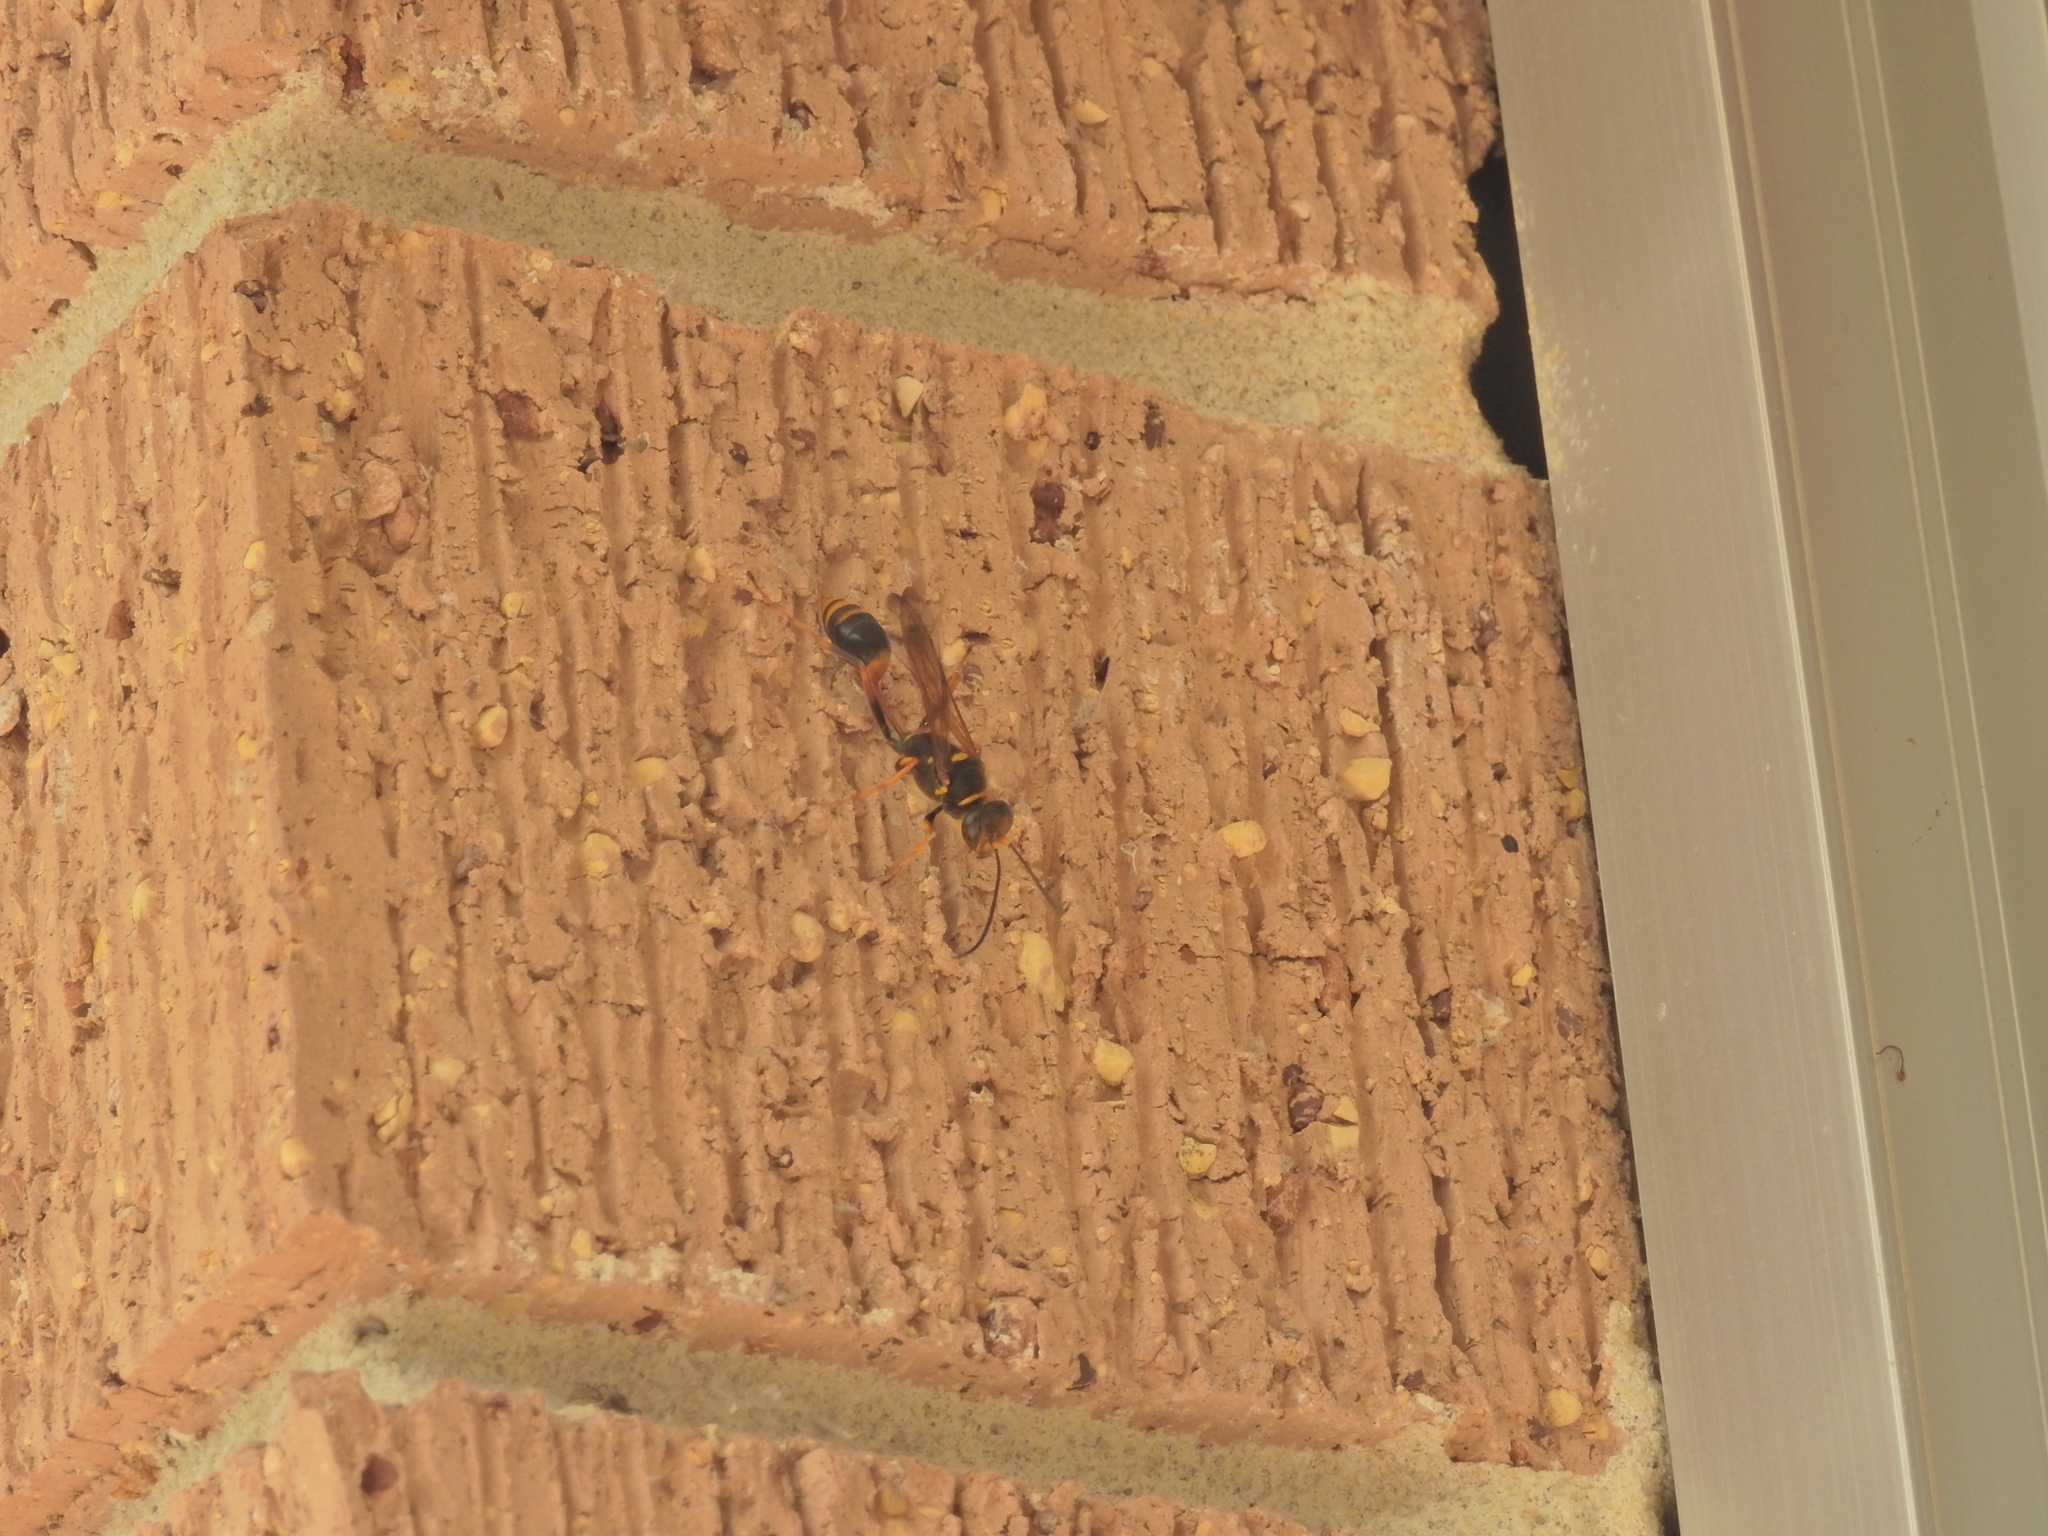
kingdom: Animalia
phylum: Arthropoda
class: Insecta
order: Hymenoptera
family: Sphecidae
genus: Sceliphron
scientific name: Sceliphron formosum
